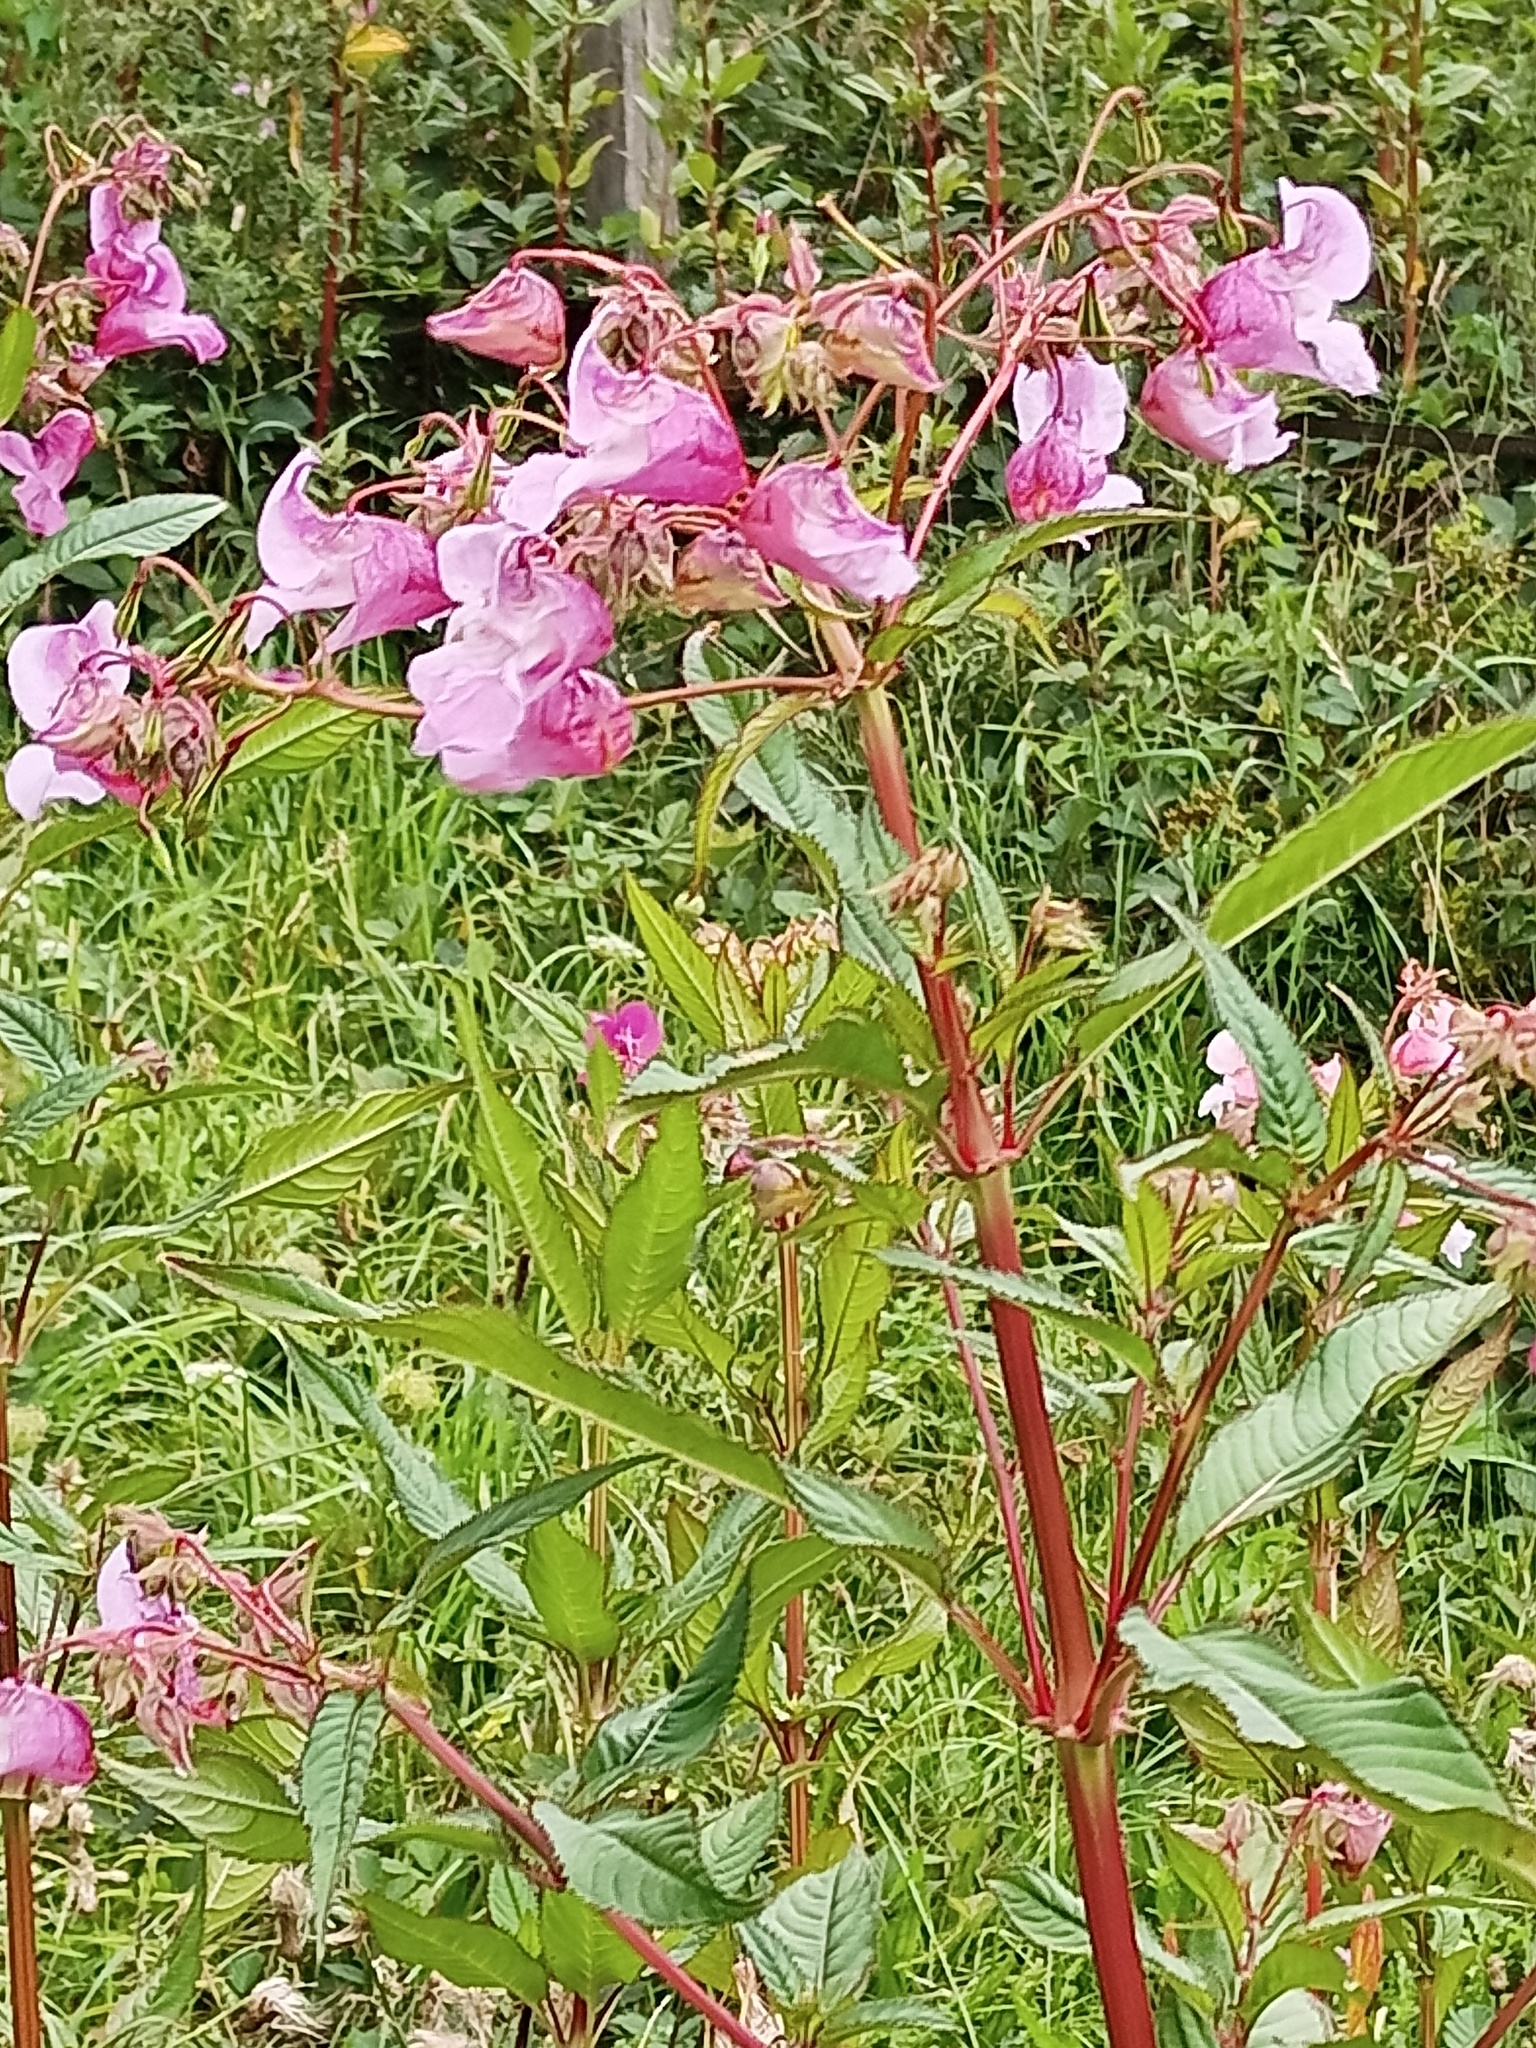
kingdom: Plantae
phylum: Tracheophyta
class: Magnoliopsida
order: Ericales
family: Balsaminaceae
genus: Impatiens
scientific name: Impatiens glandulifera
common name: Himalayan balsam
